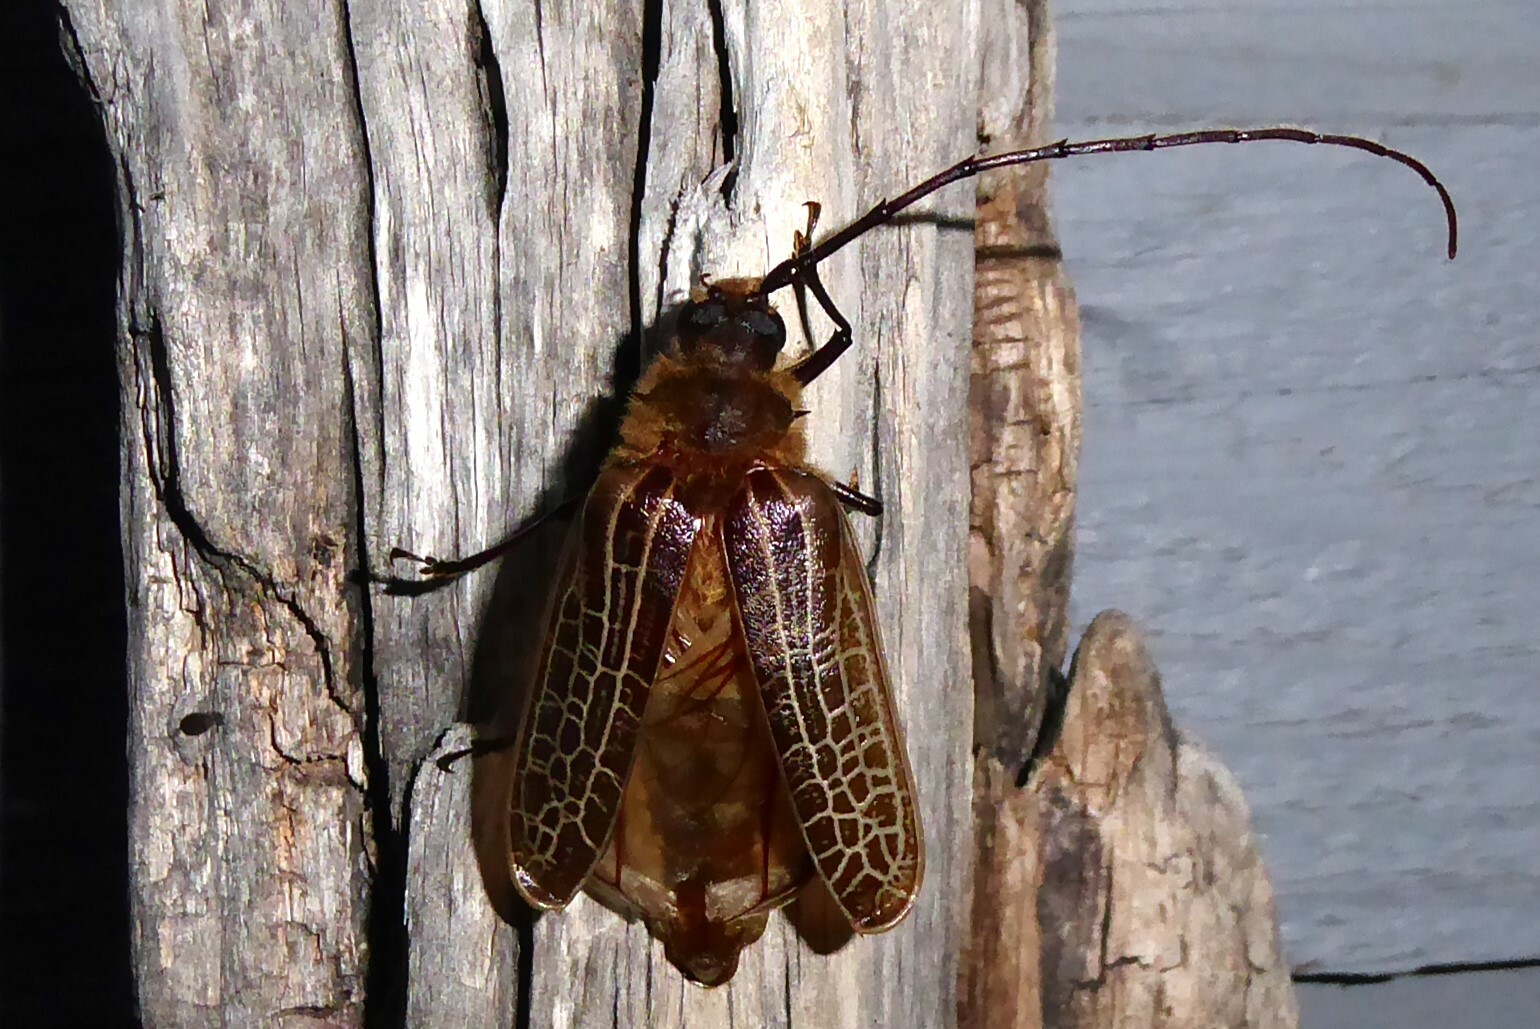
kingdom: Animalia
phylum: Arthropoda
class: Insecta
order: Coleoptera
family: Cerambycidae
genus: Prionoplus
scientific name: Prionoplus reticularis
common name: Huhu beetle
